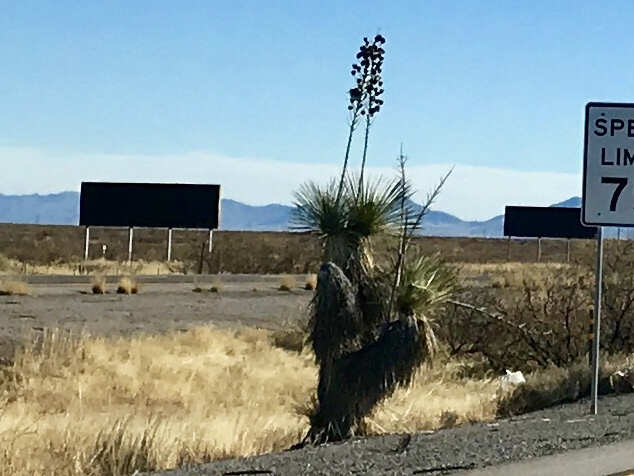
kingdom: Plantae
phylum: Tracheophyta
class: Liliopsida
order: Asparagales
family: Asparagaceae
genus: Yucca
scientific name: Yucca elata
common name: Palmella
